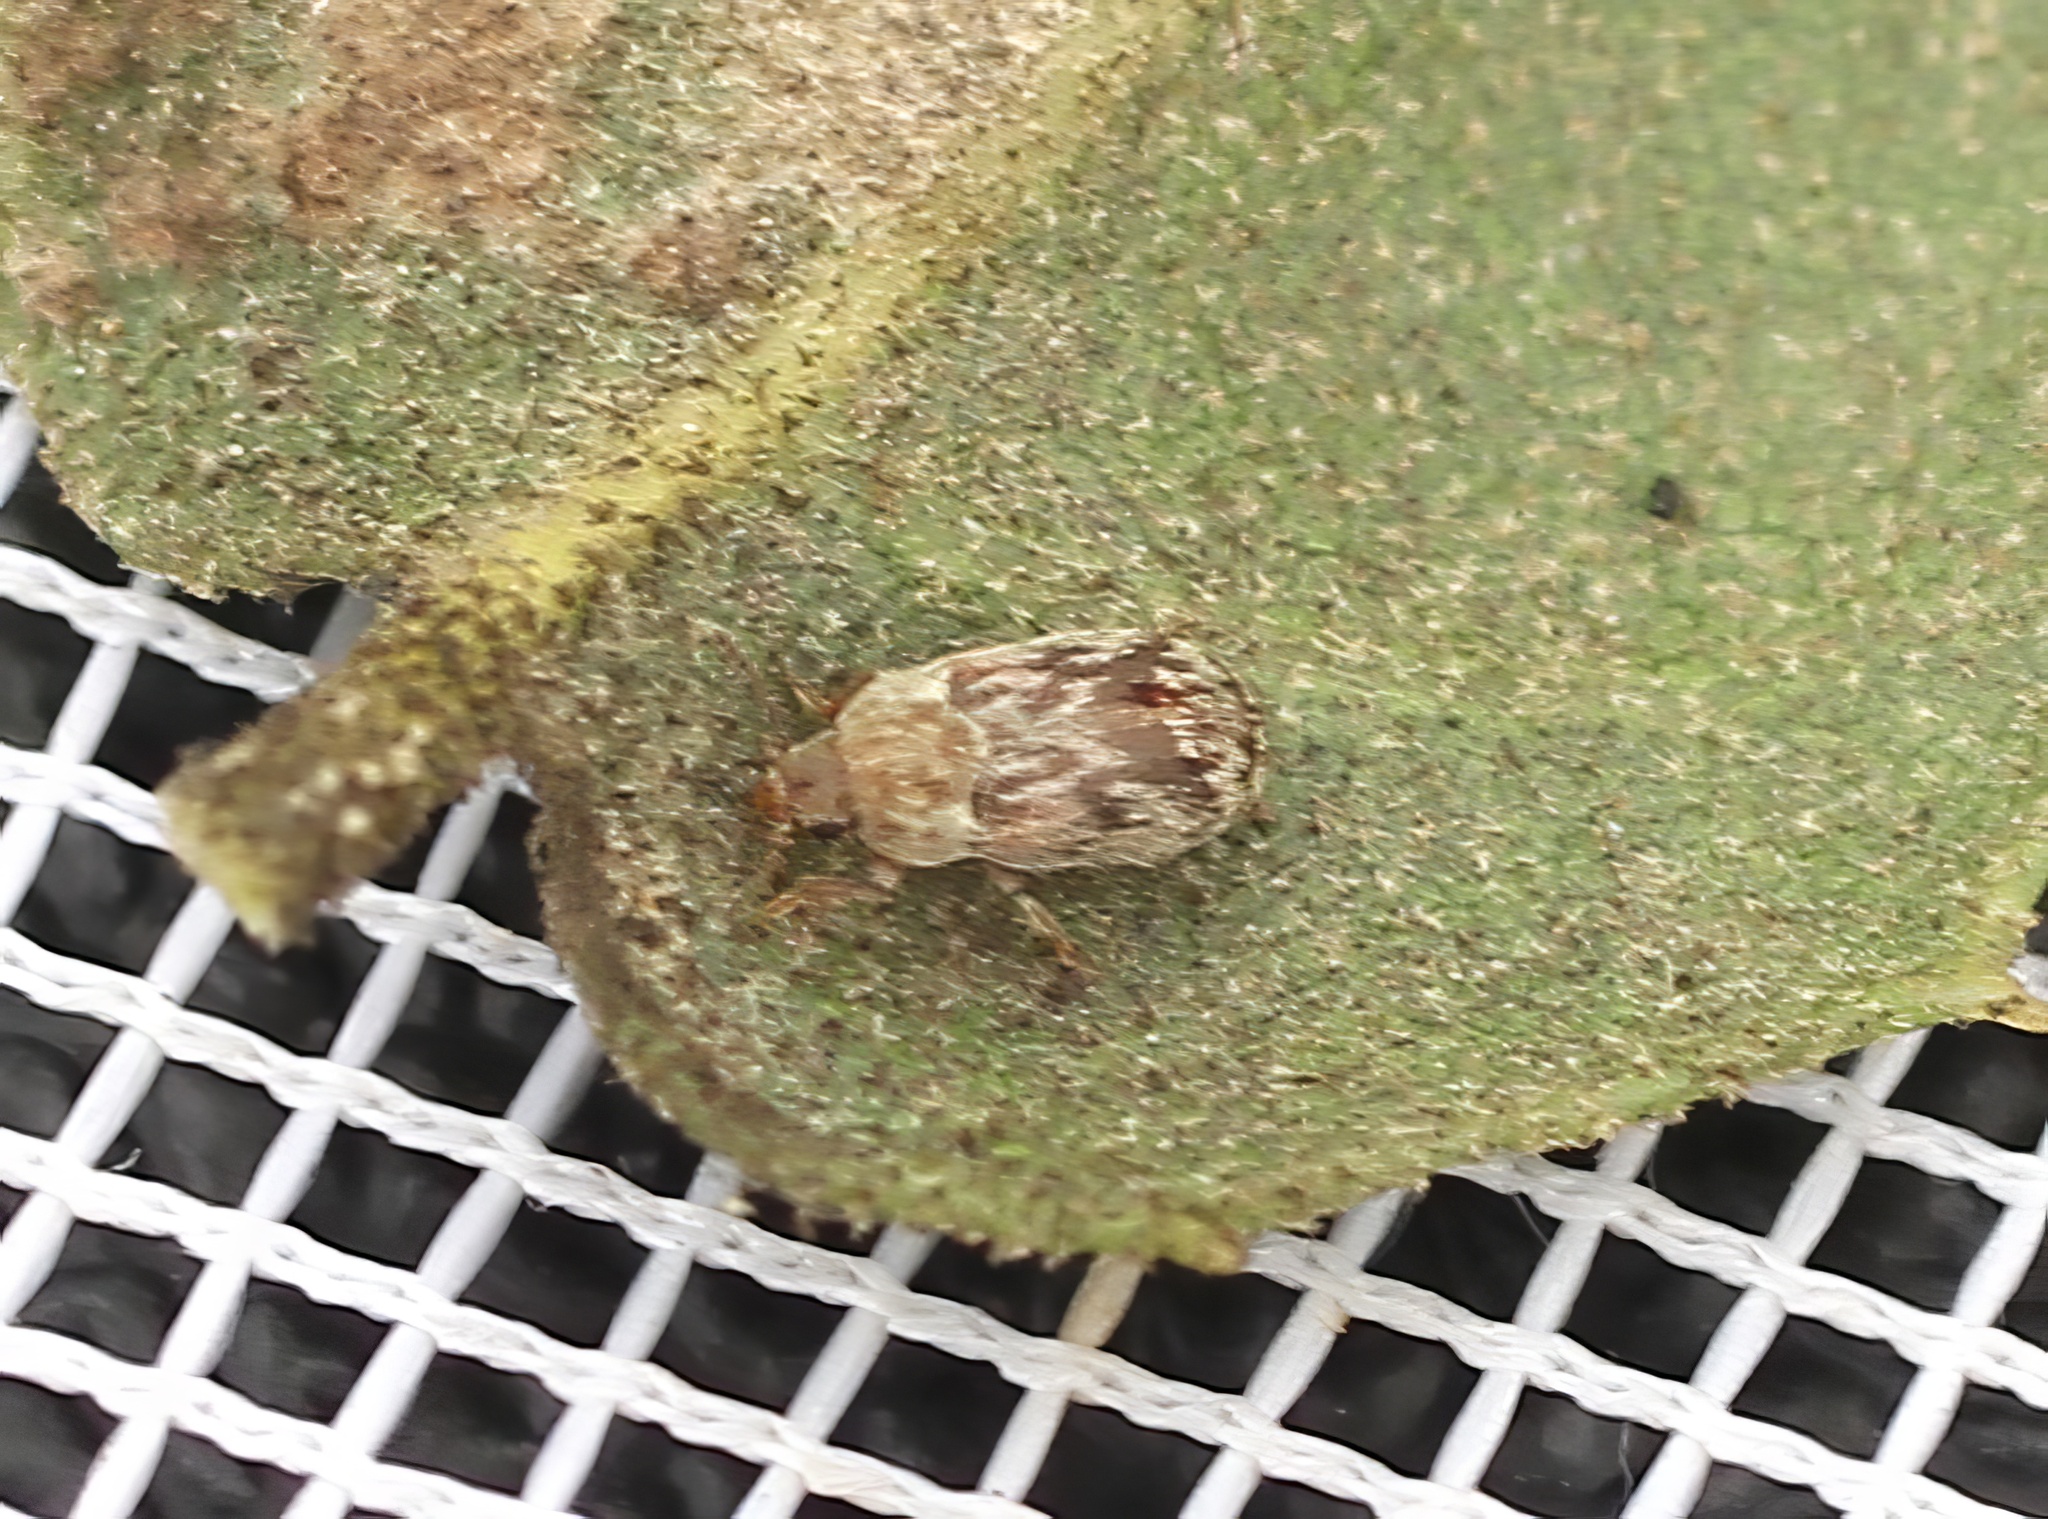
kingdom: Animalia
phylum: Arthropoda
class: Insecta
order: Coleoptera
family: Byturidae
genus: Xerasia
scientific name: Xerasia grisescens
